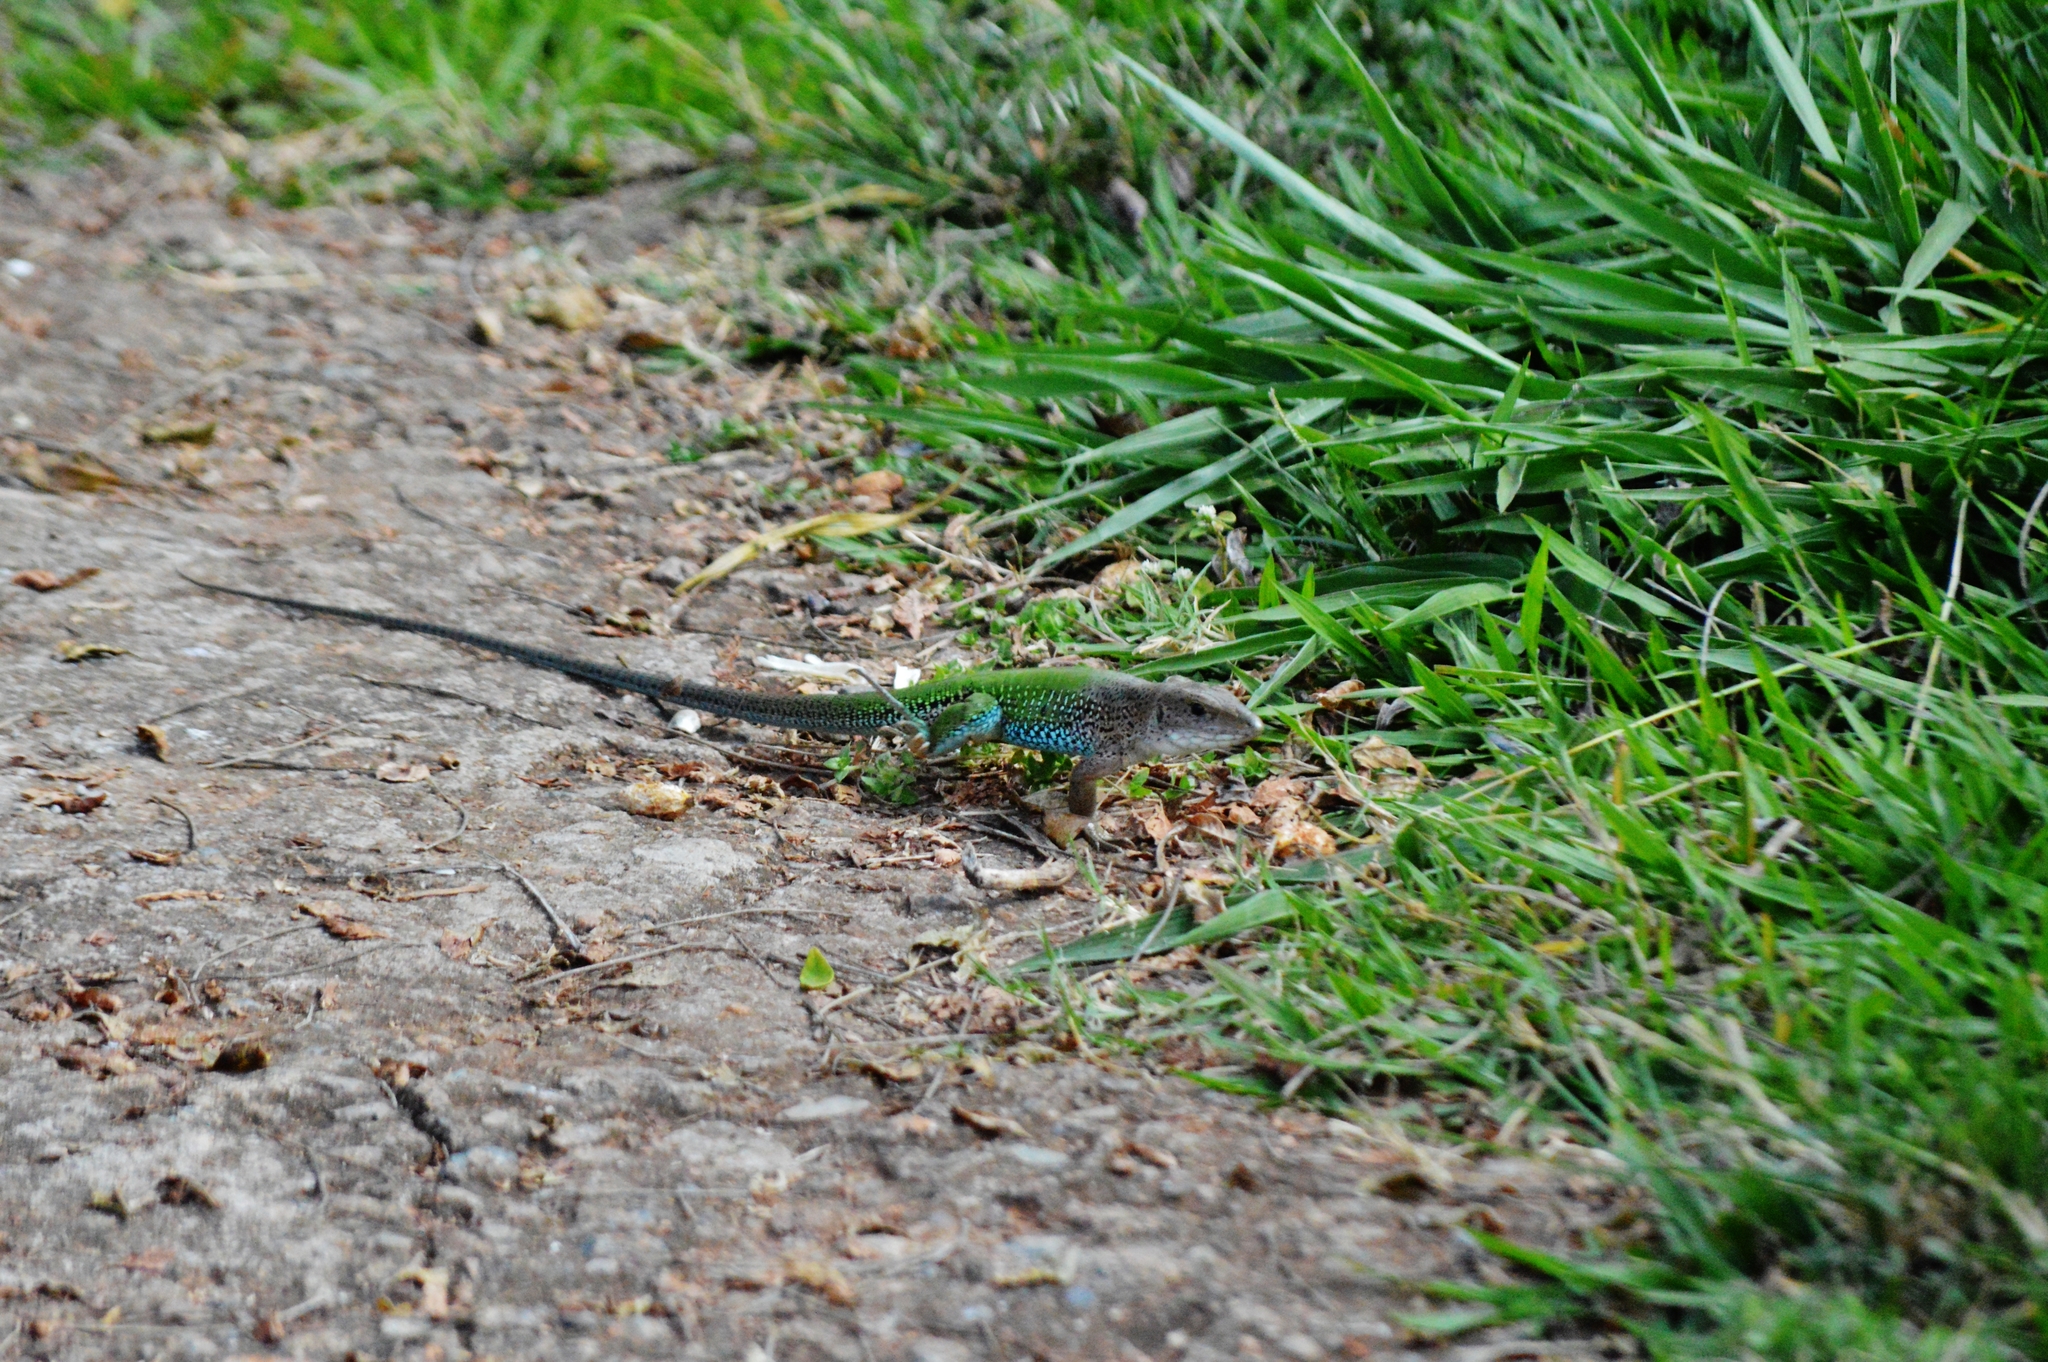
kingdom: Animalia
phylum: Chordata
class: Squamata
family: Teiidae
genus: Ameiva
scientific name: Ameiva ameiva
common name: Giant ameiva
